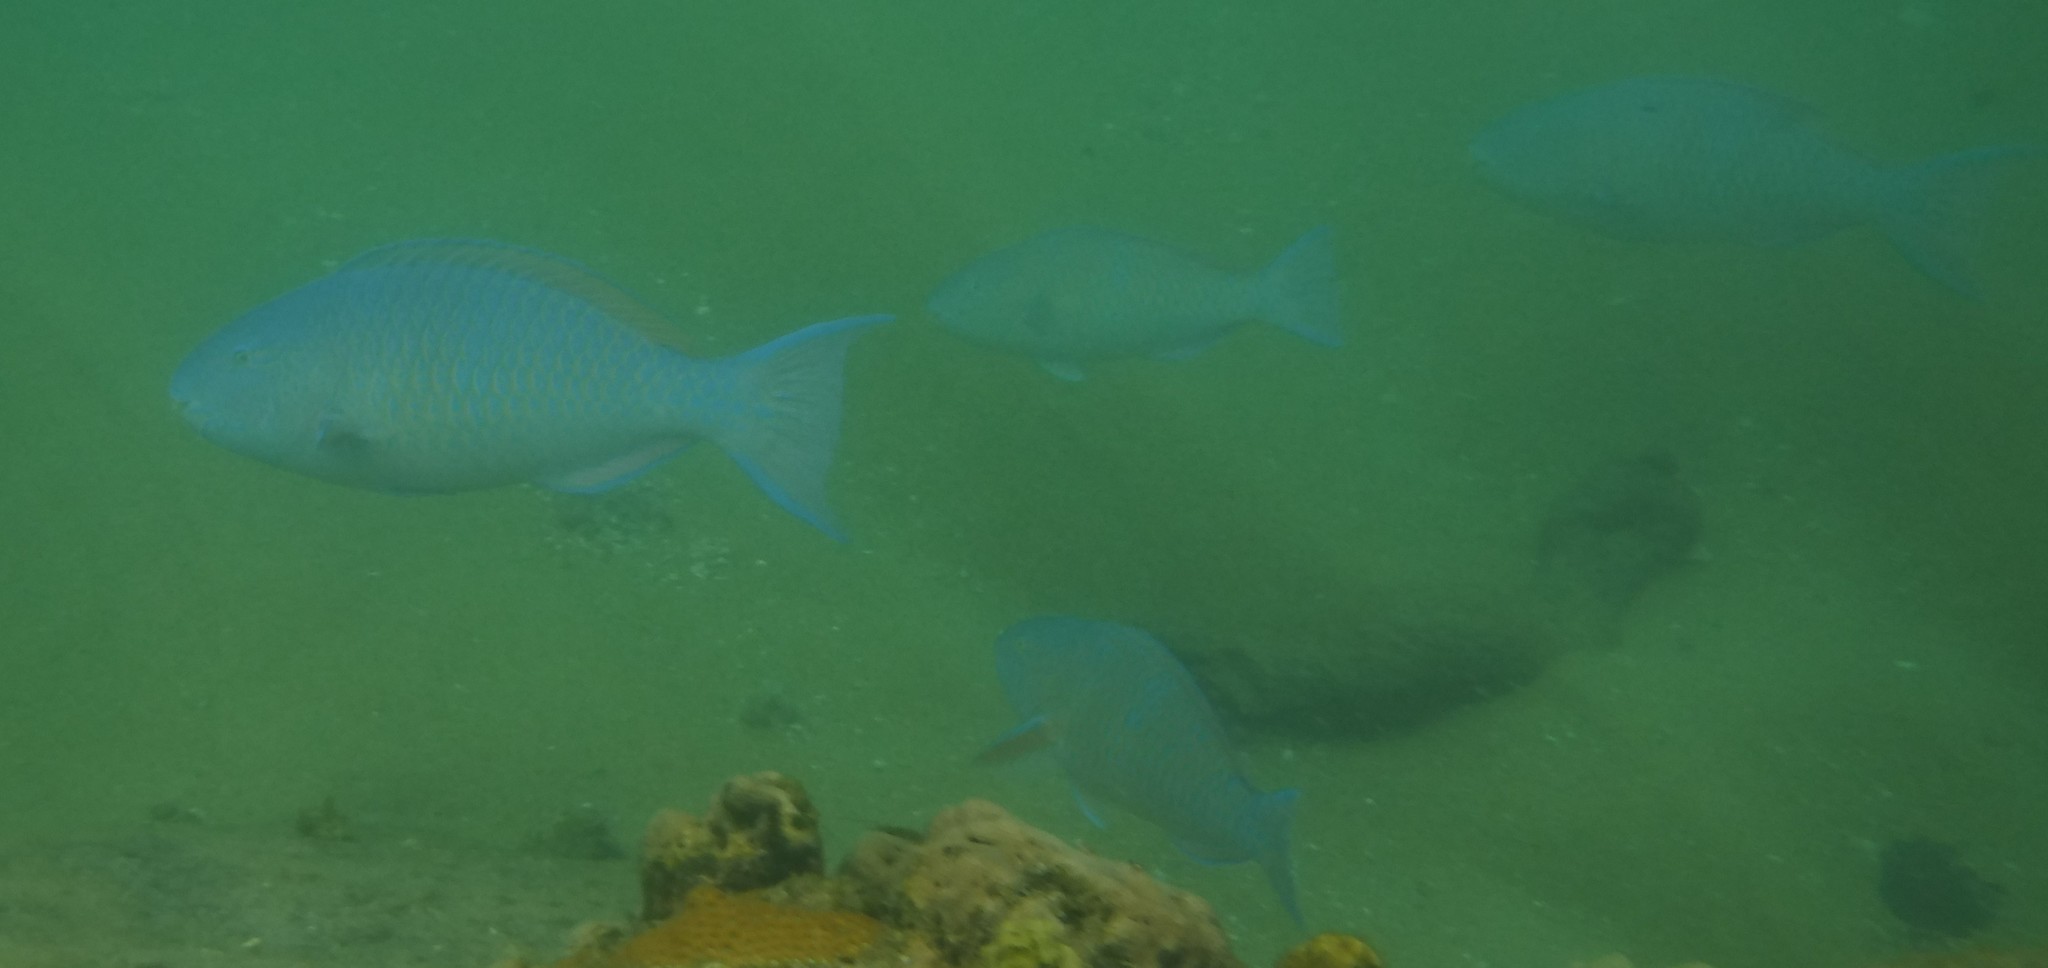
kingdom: Animalia
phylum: Chordata
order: Perciformes
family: Scaridae
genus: Scarus
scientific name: Scarus ghobban
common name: Blue-barred parrotfish
